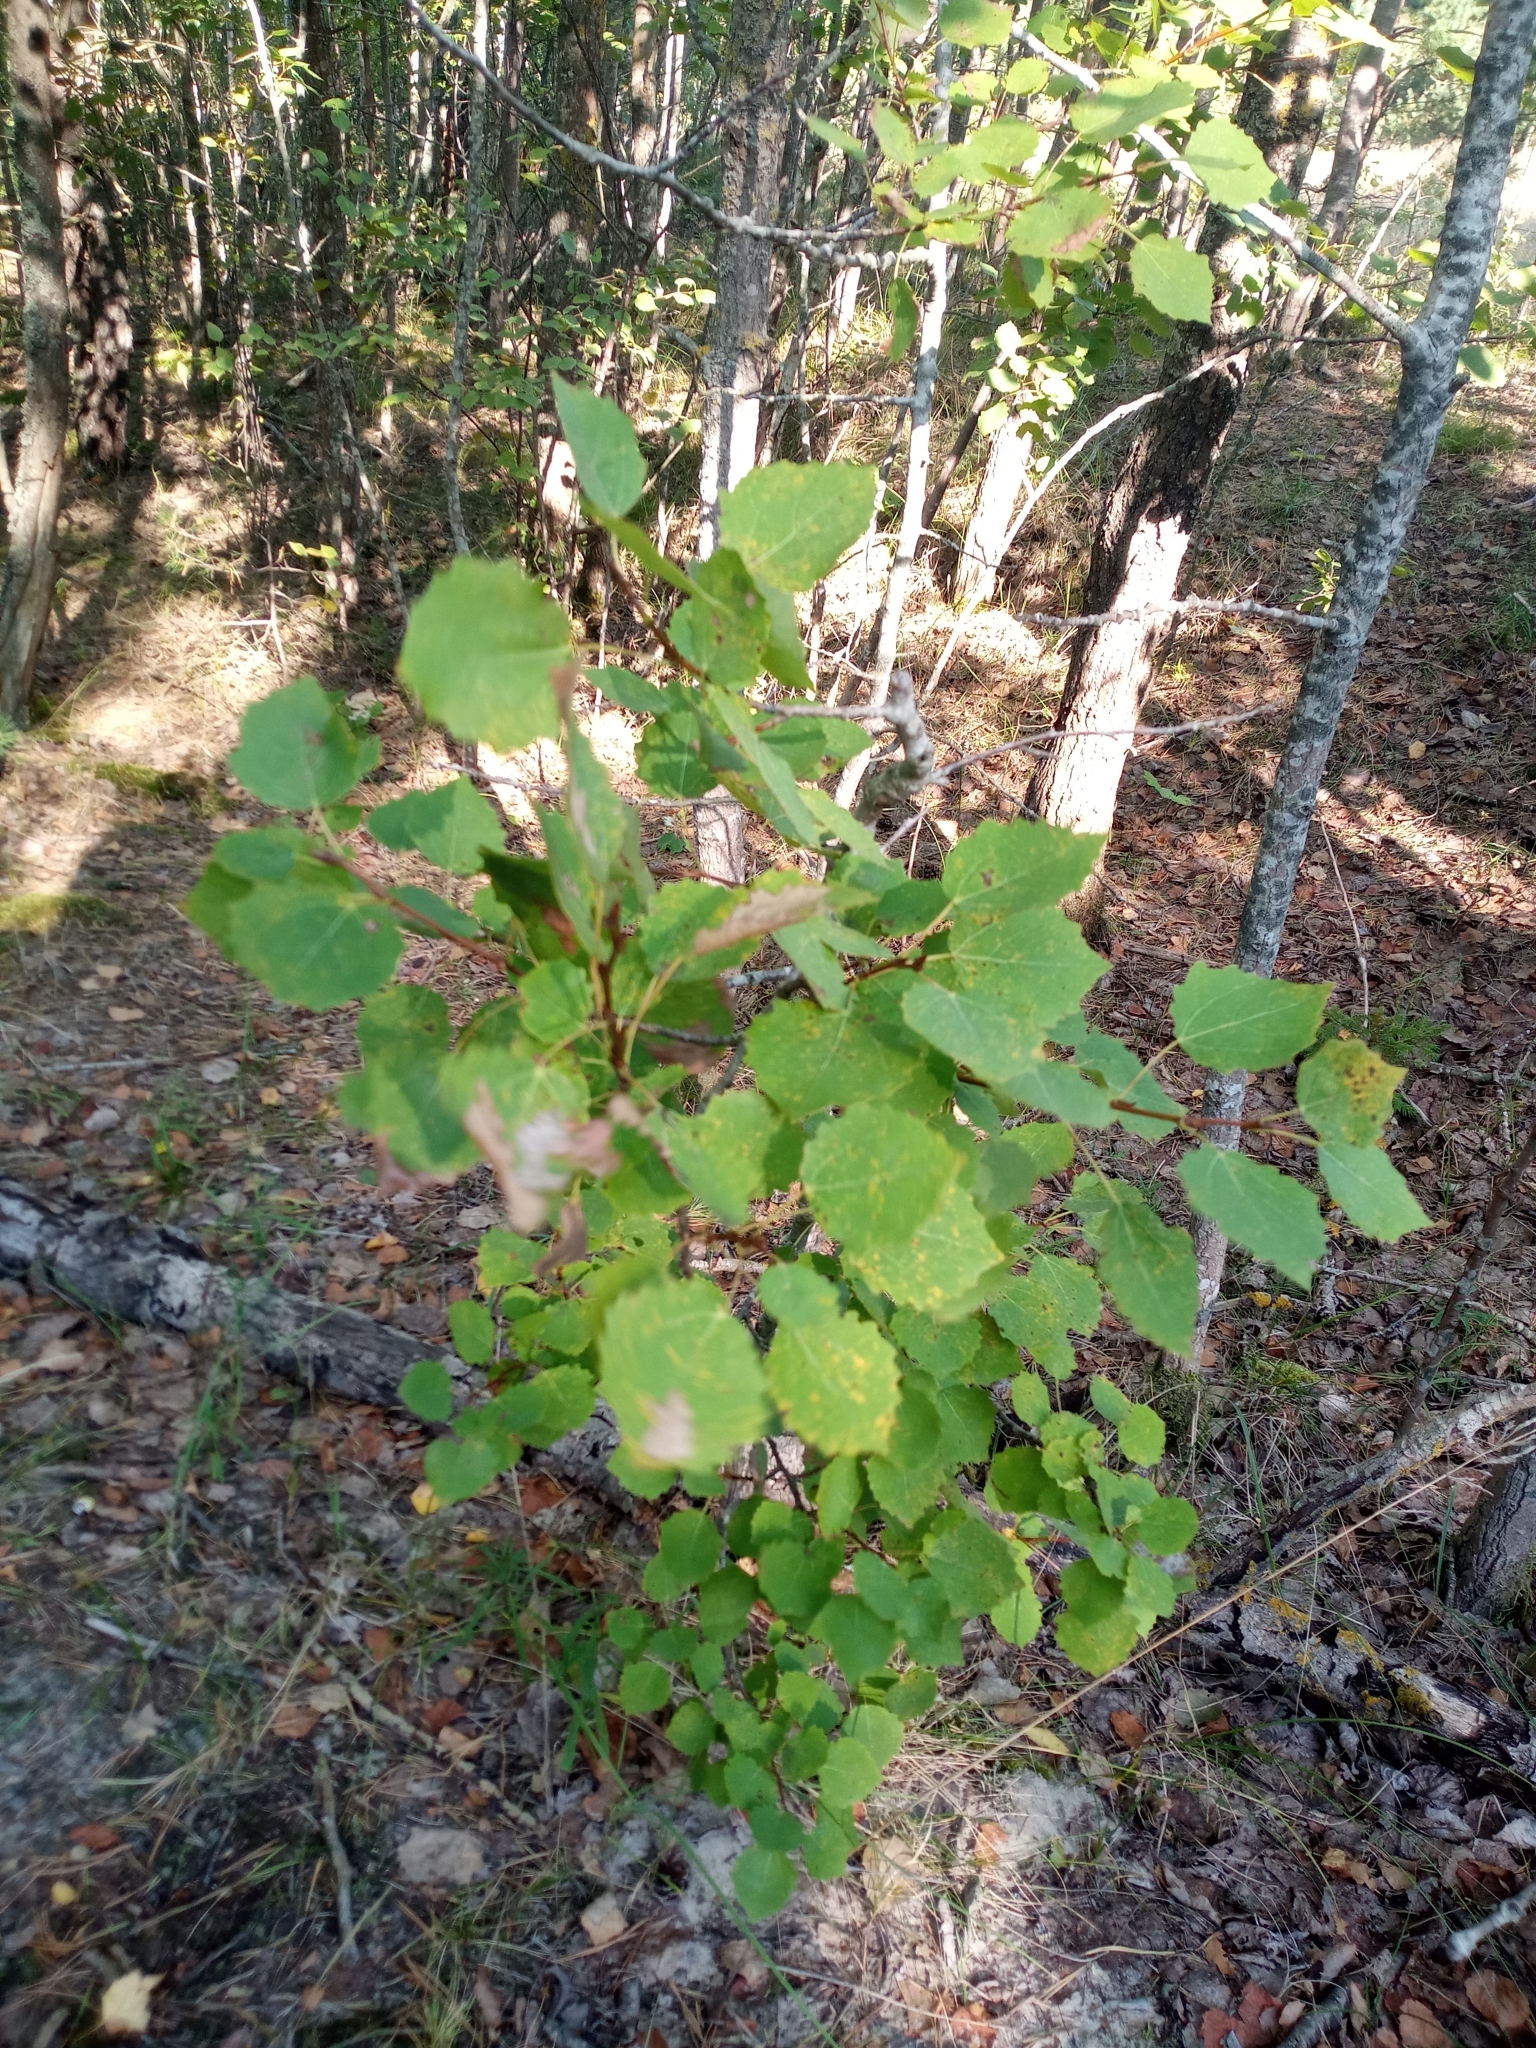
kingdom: Plantae
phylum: Tracheophyta
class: Magnoliopsida
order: Malpighiales
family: Salicaceae
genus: Populus
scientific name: Populus tremula
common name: European aspen
